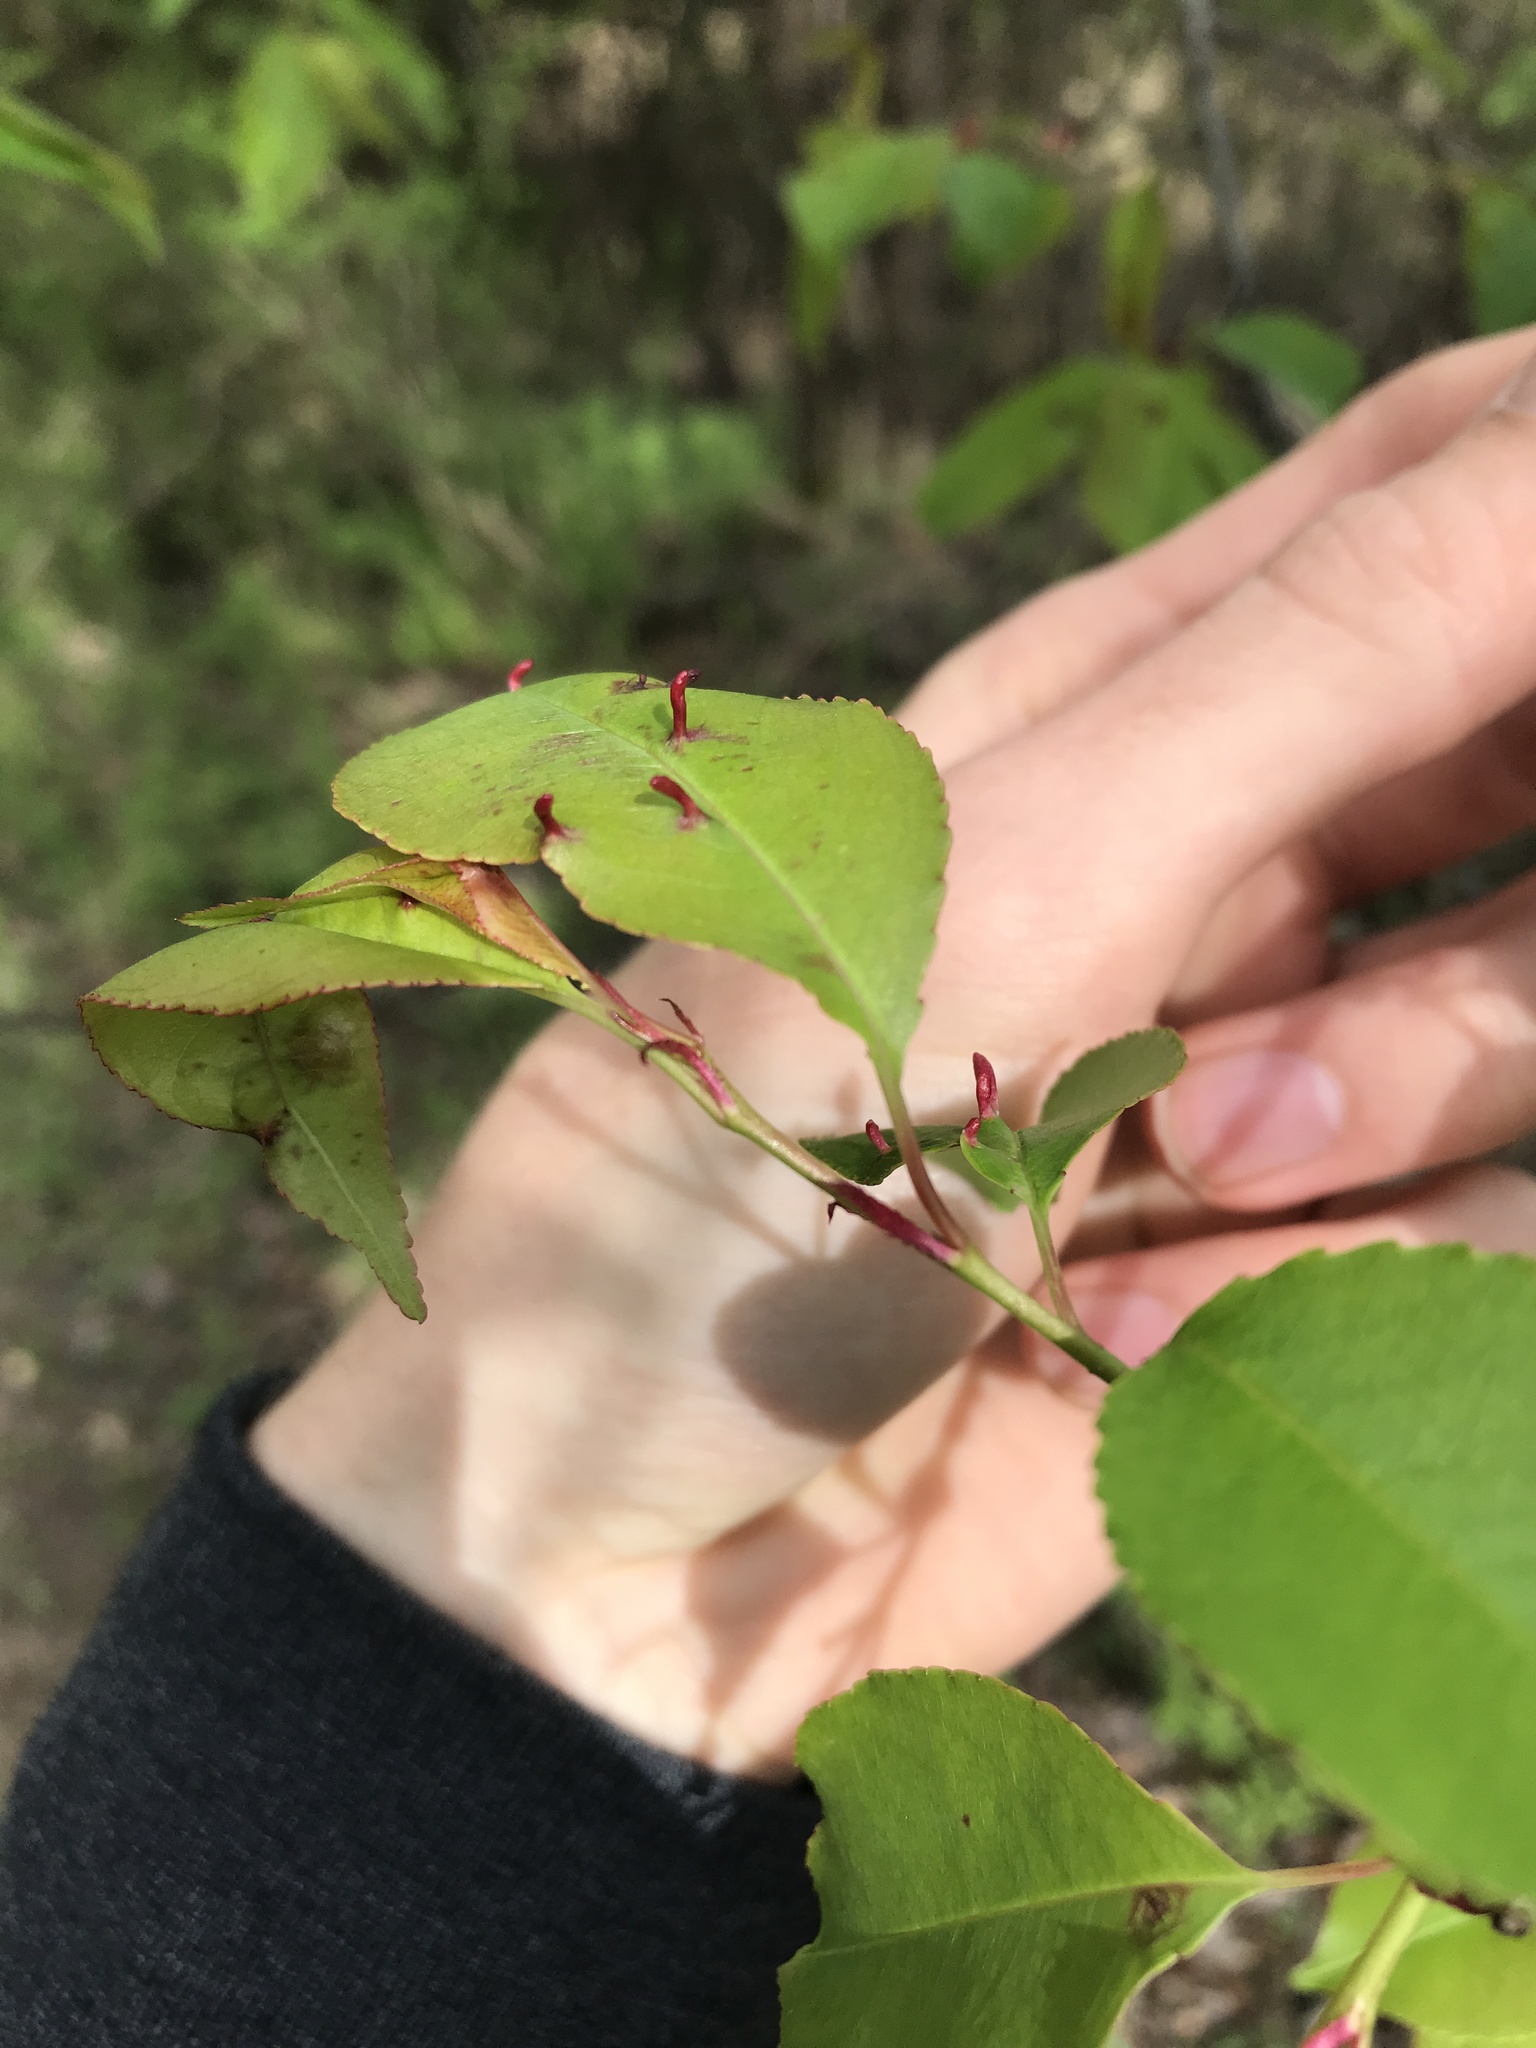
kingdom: Animalia
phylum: Arthropoda
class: Arachnida
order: Trombidiformes
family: Eriophyidae
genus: Eriophyes
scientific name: Eriophyes
